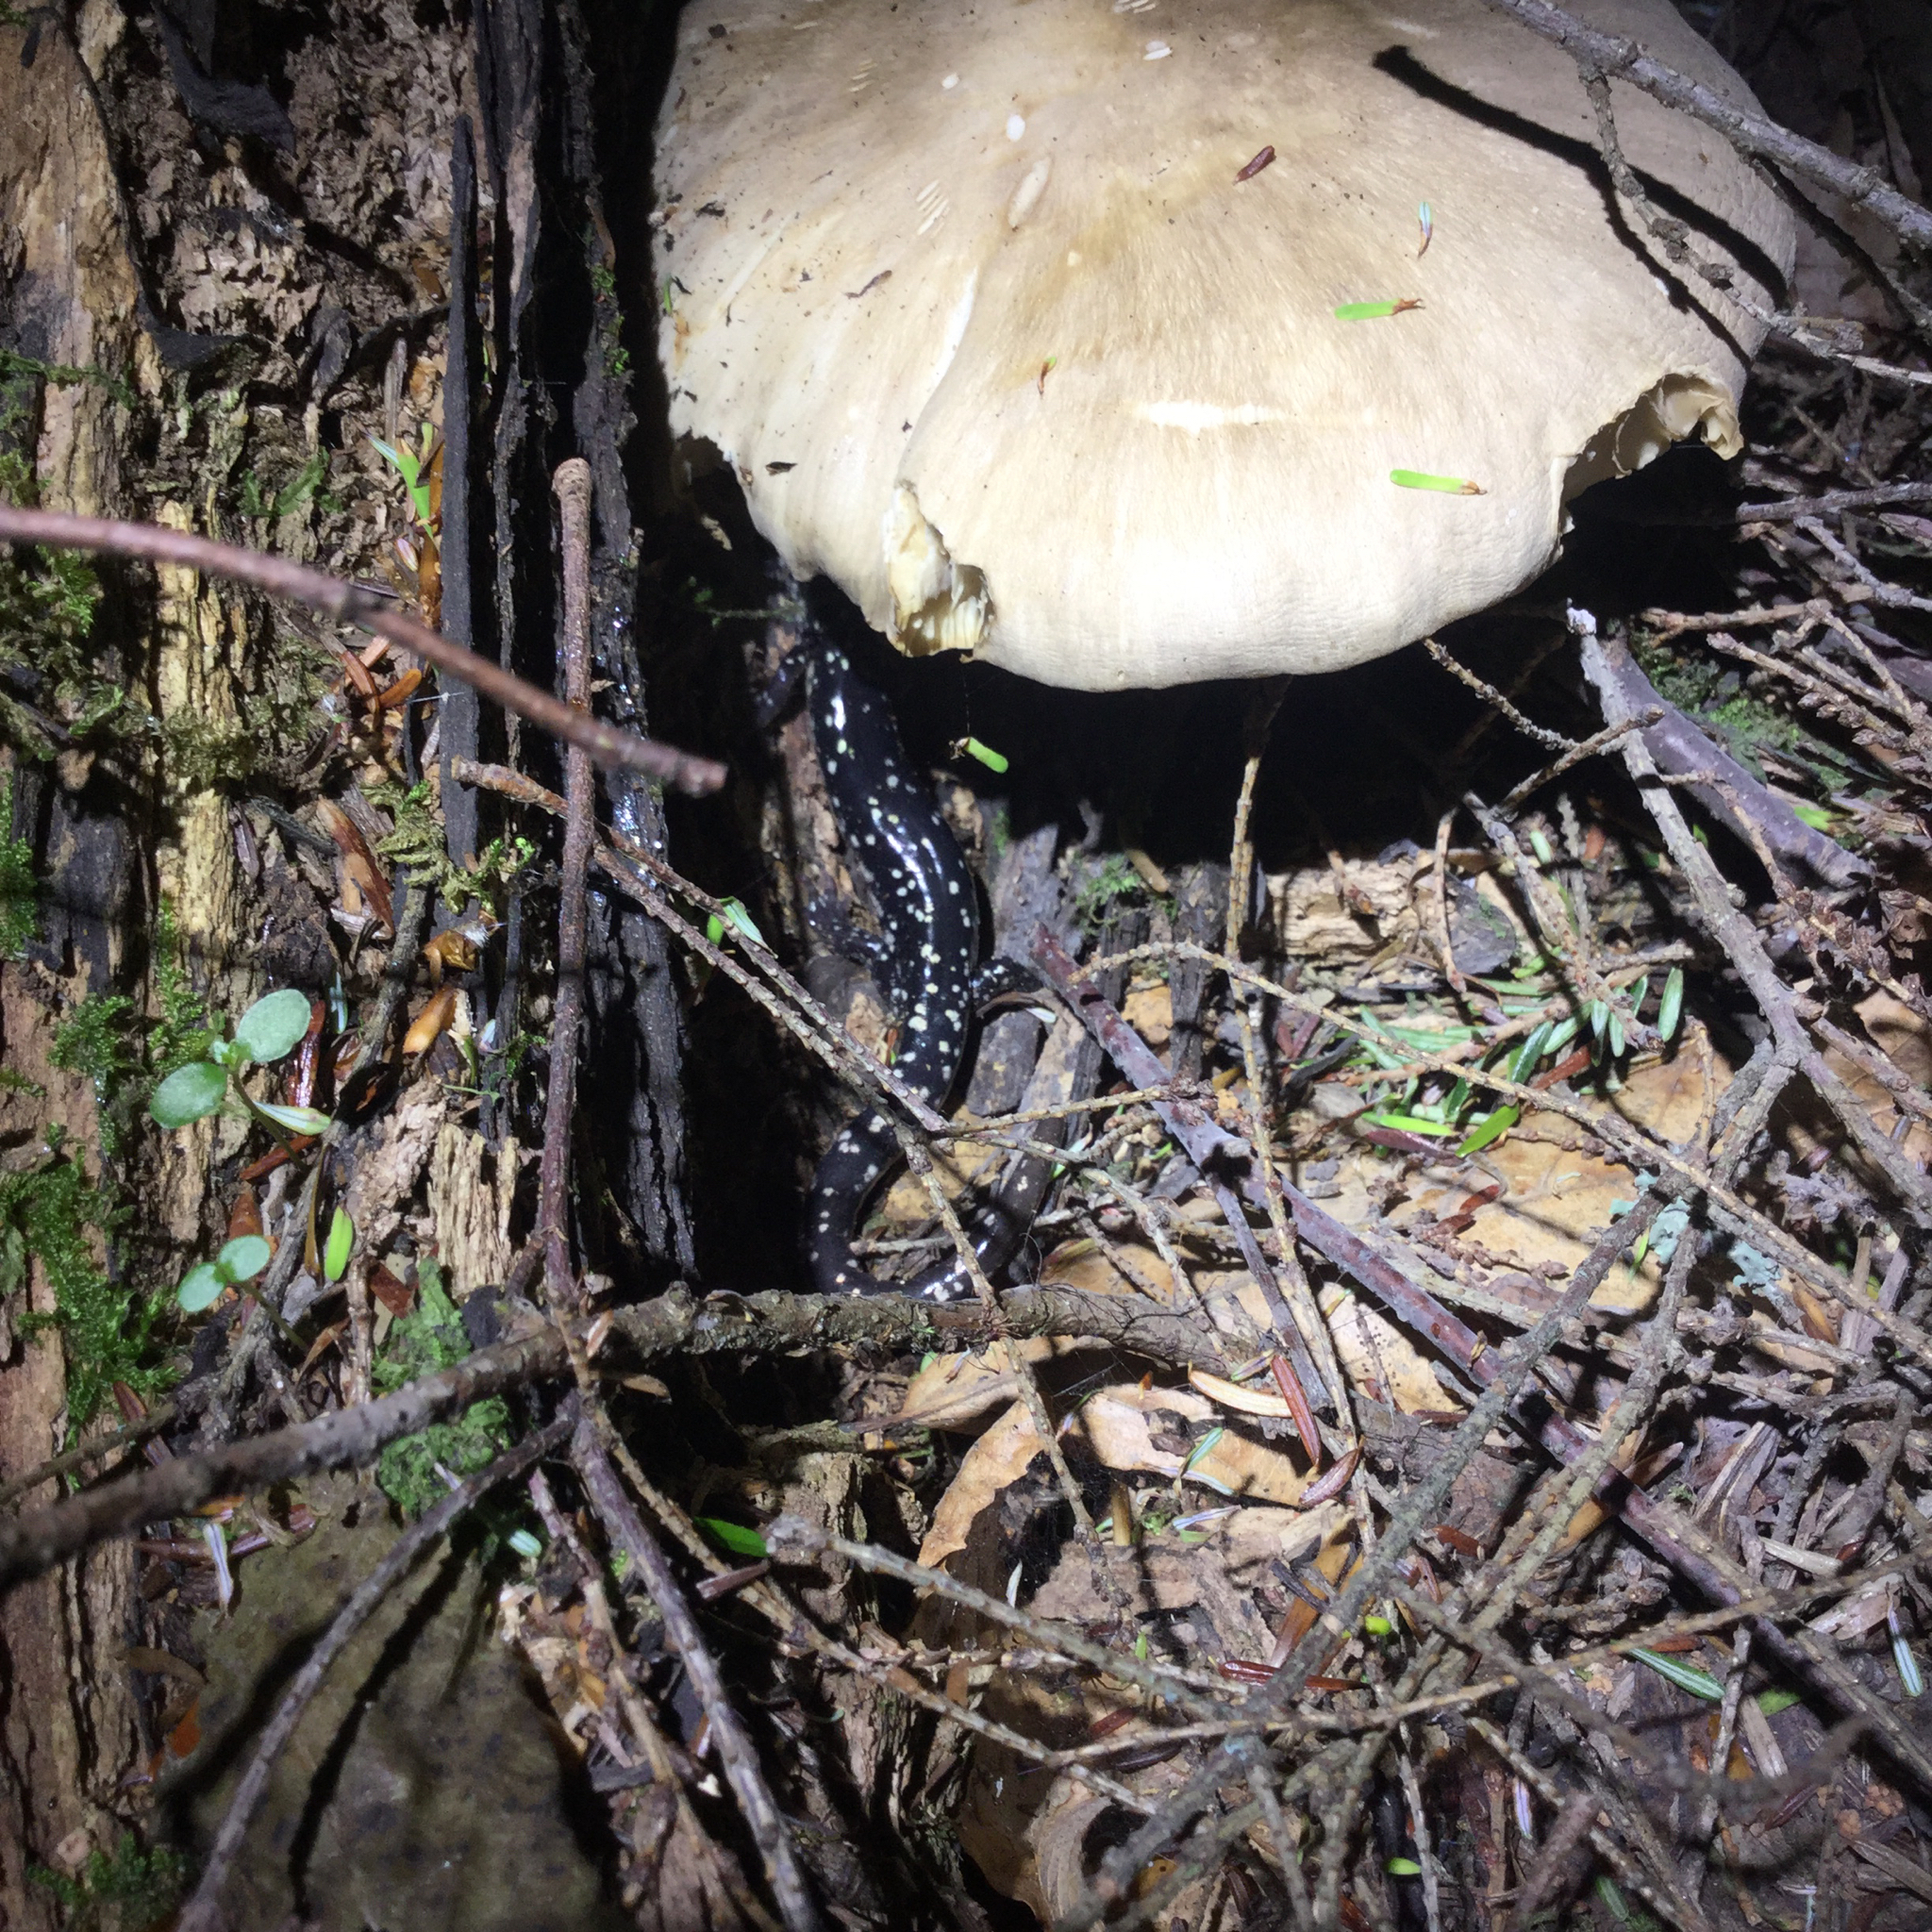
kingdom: Animalia
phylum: Chordata
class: Amphibia
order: Caudata
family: Plethodontidae
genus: Plethodon
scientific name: Plethodon glutinosus
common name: Northern slimy salamander
